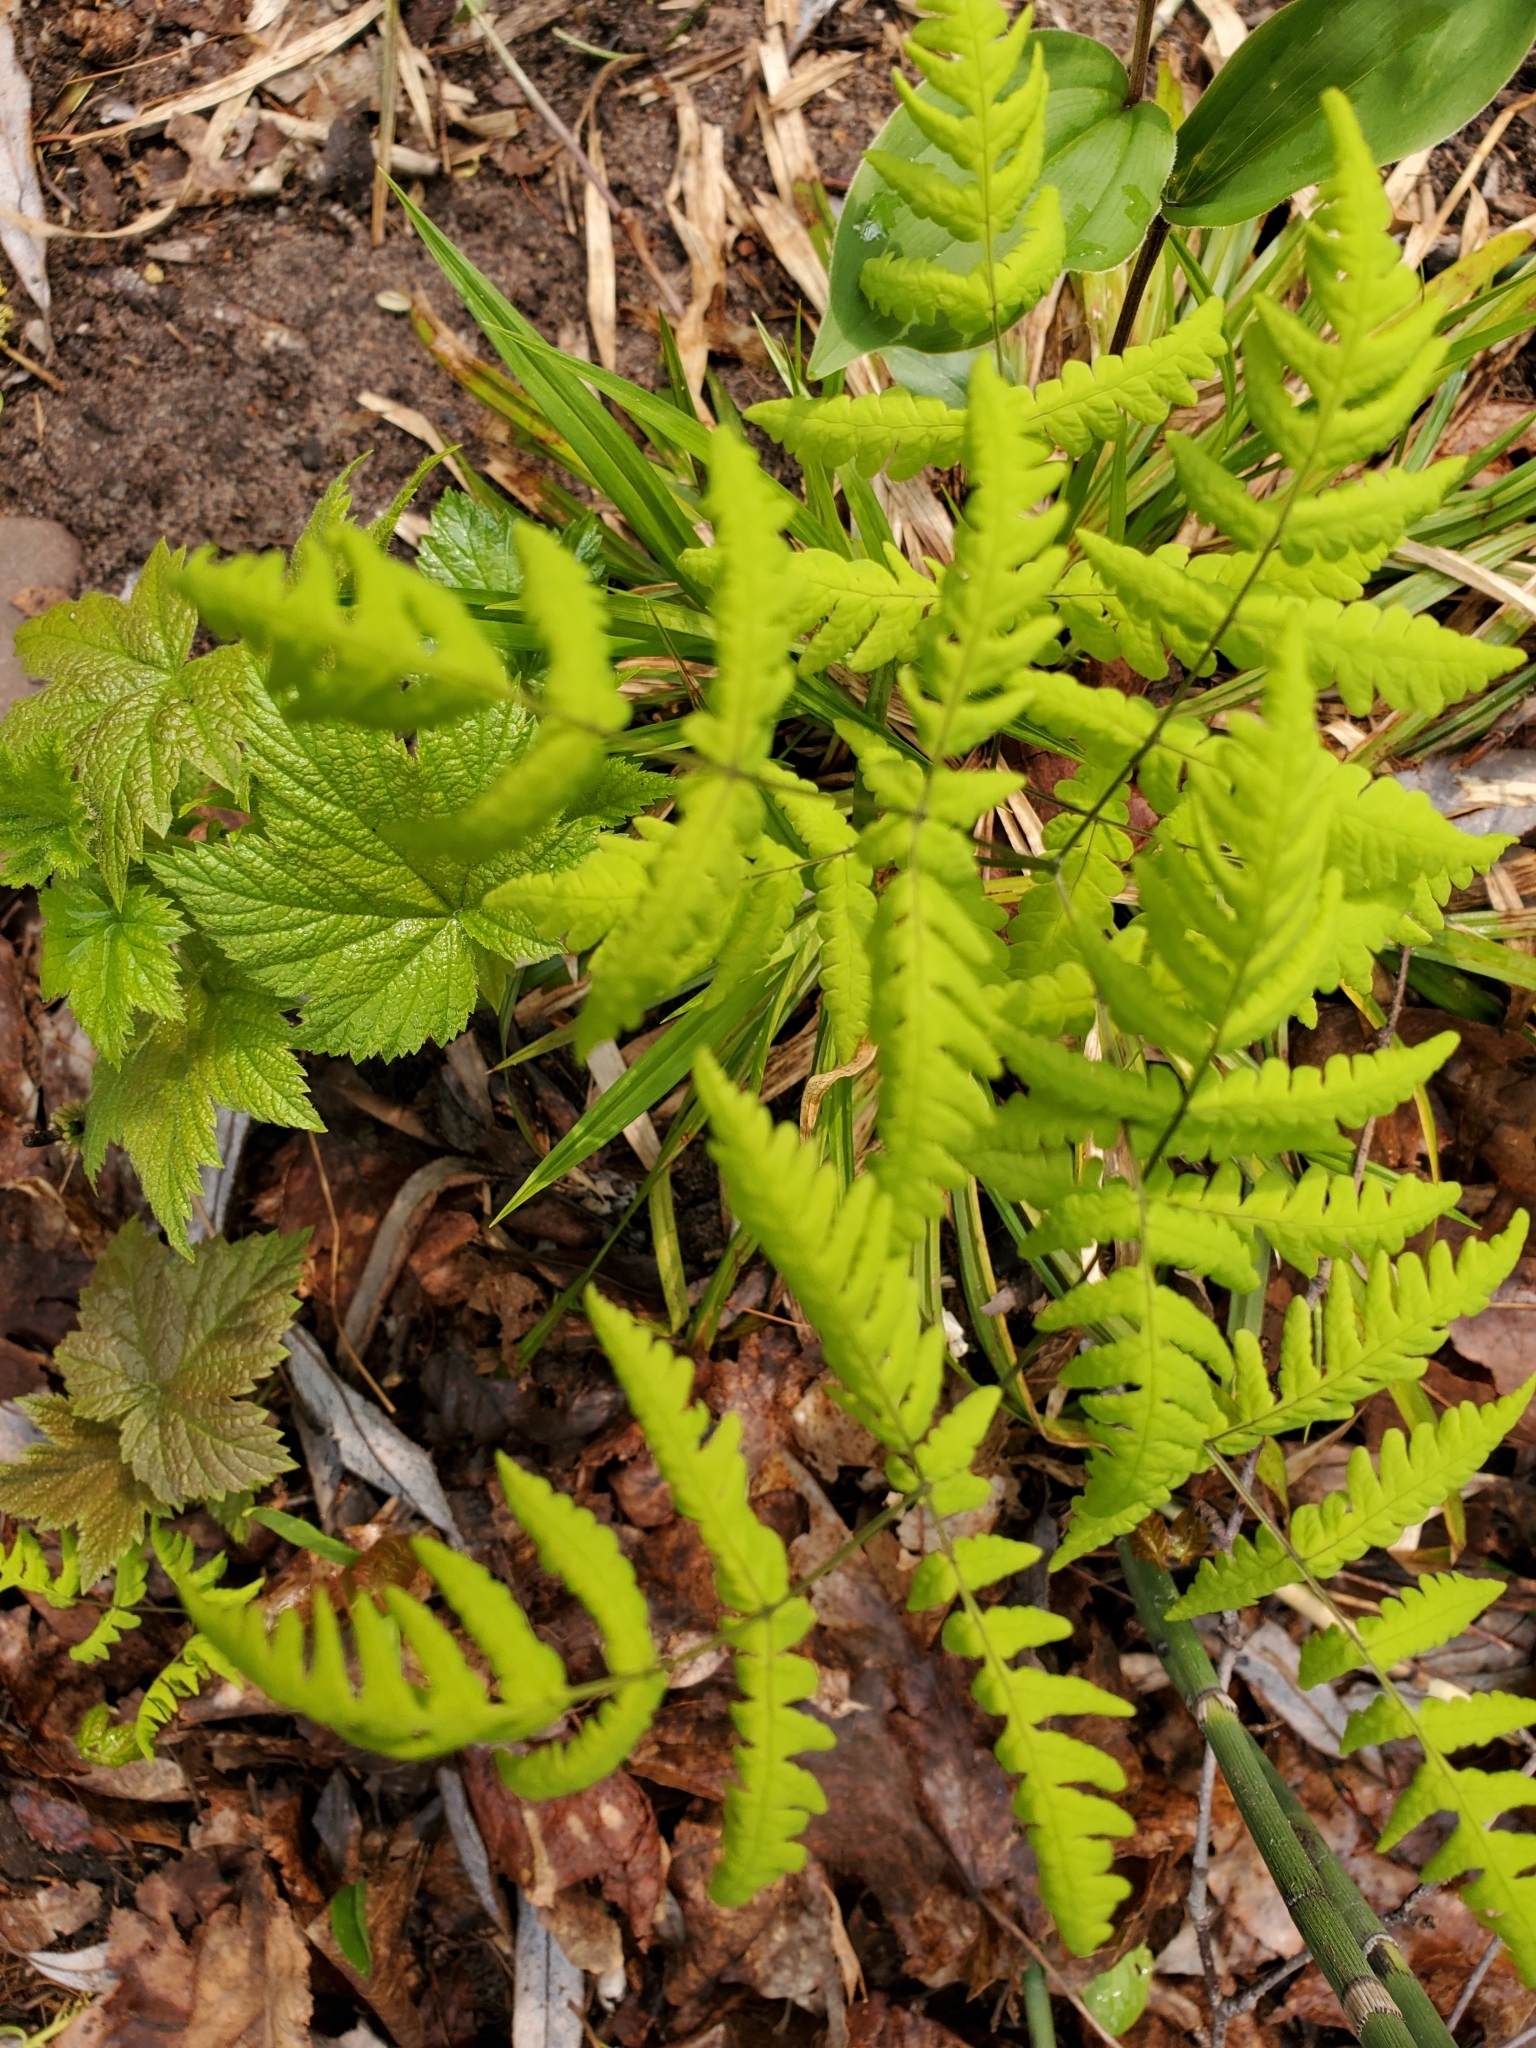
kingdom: Plantae
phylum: Tracheophyta
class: Polypodiopsida
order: Polypodiales
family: Cystopteridaceae
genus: Gymnocarpium
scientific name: Gymnocarpium dryopteris
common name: Oak fern
